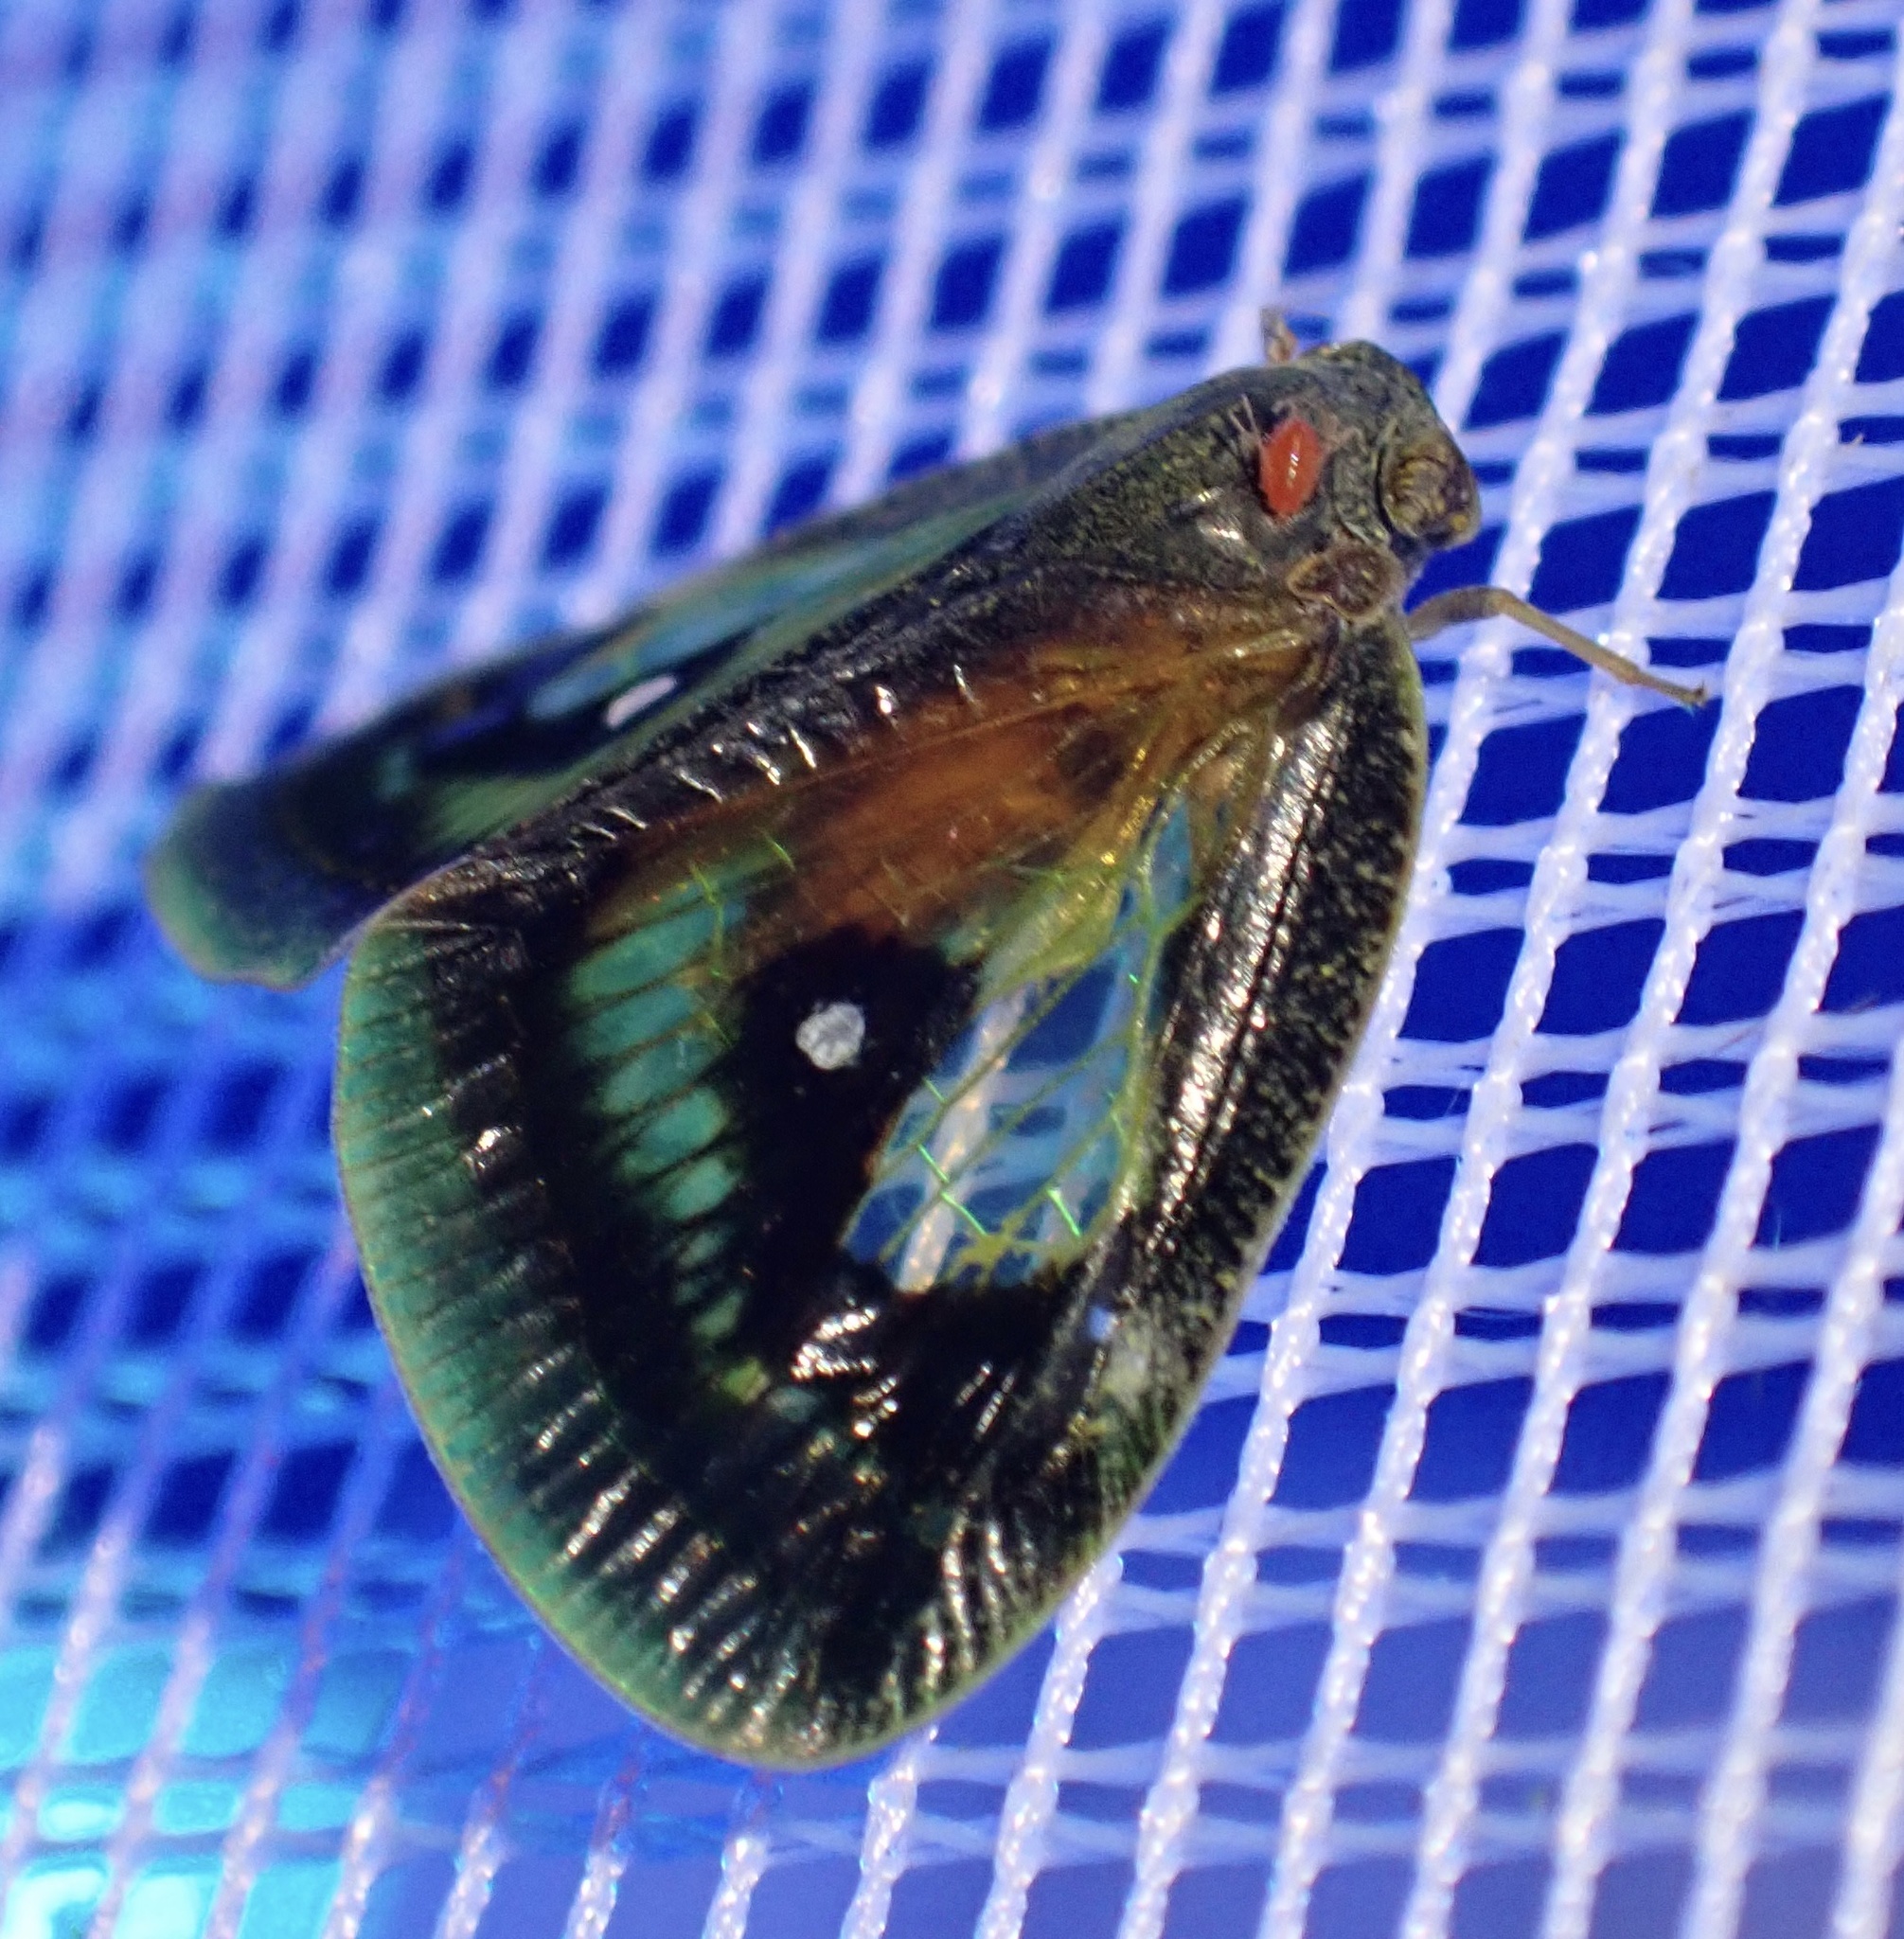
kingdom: Animalia
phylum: Arthropoda
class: Insecta
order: Hemiptera
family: Ricaniidae
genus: Euricania
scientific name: Euricania splendida
